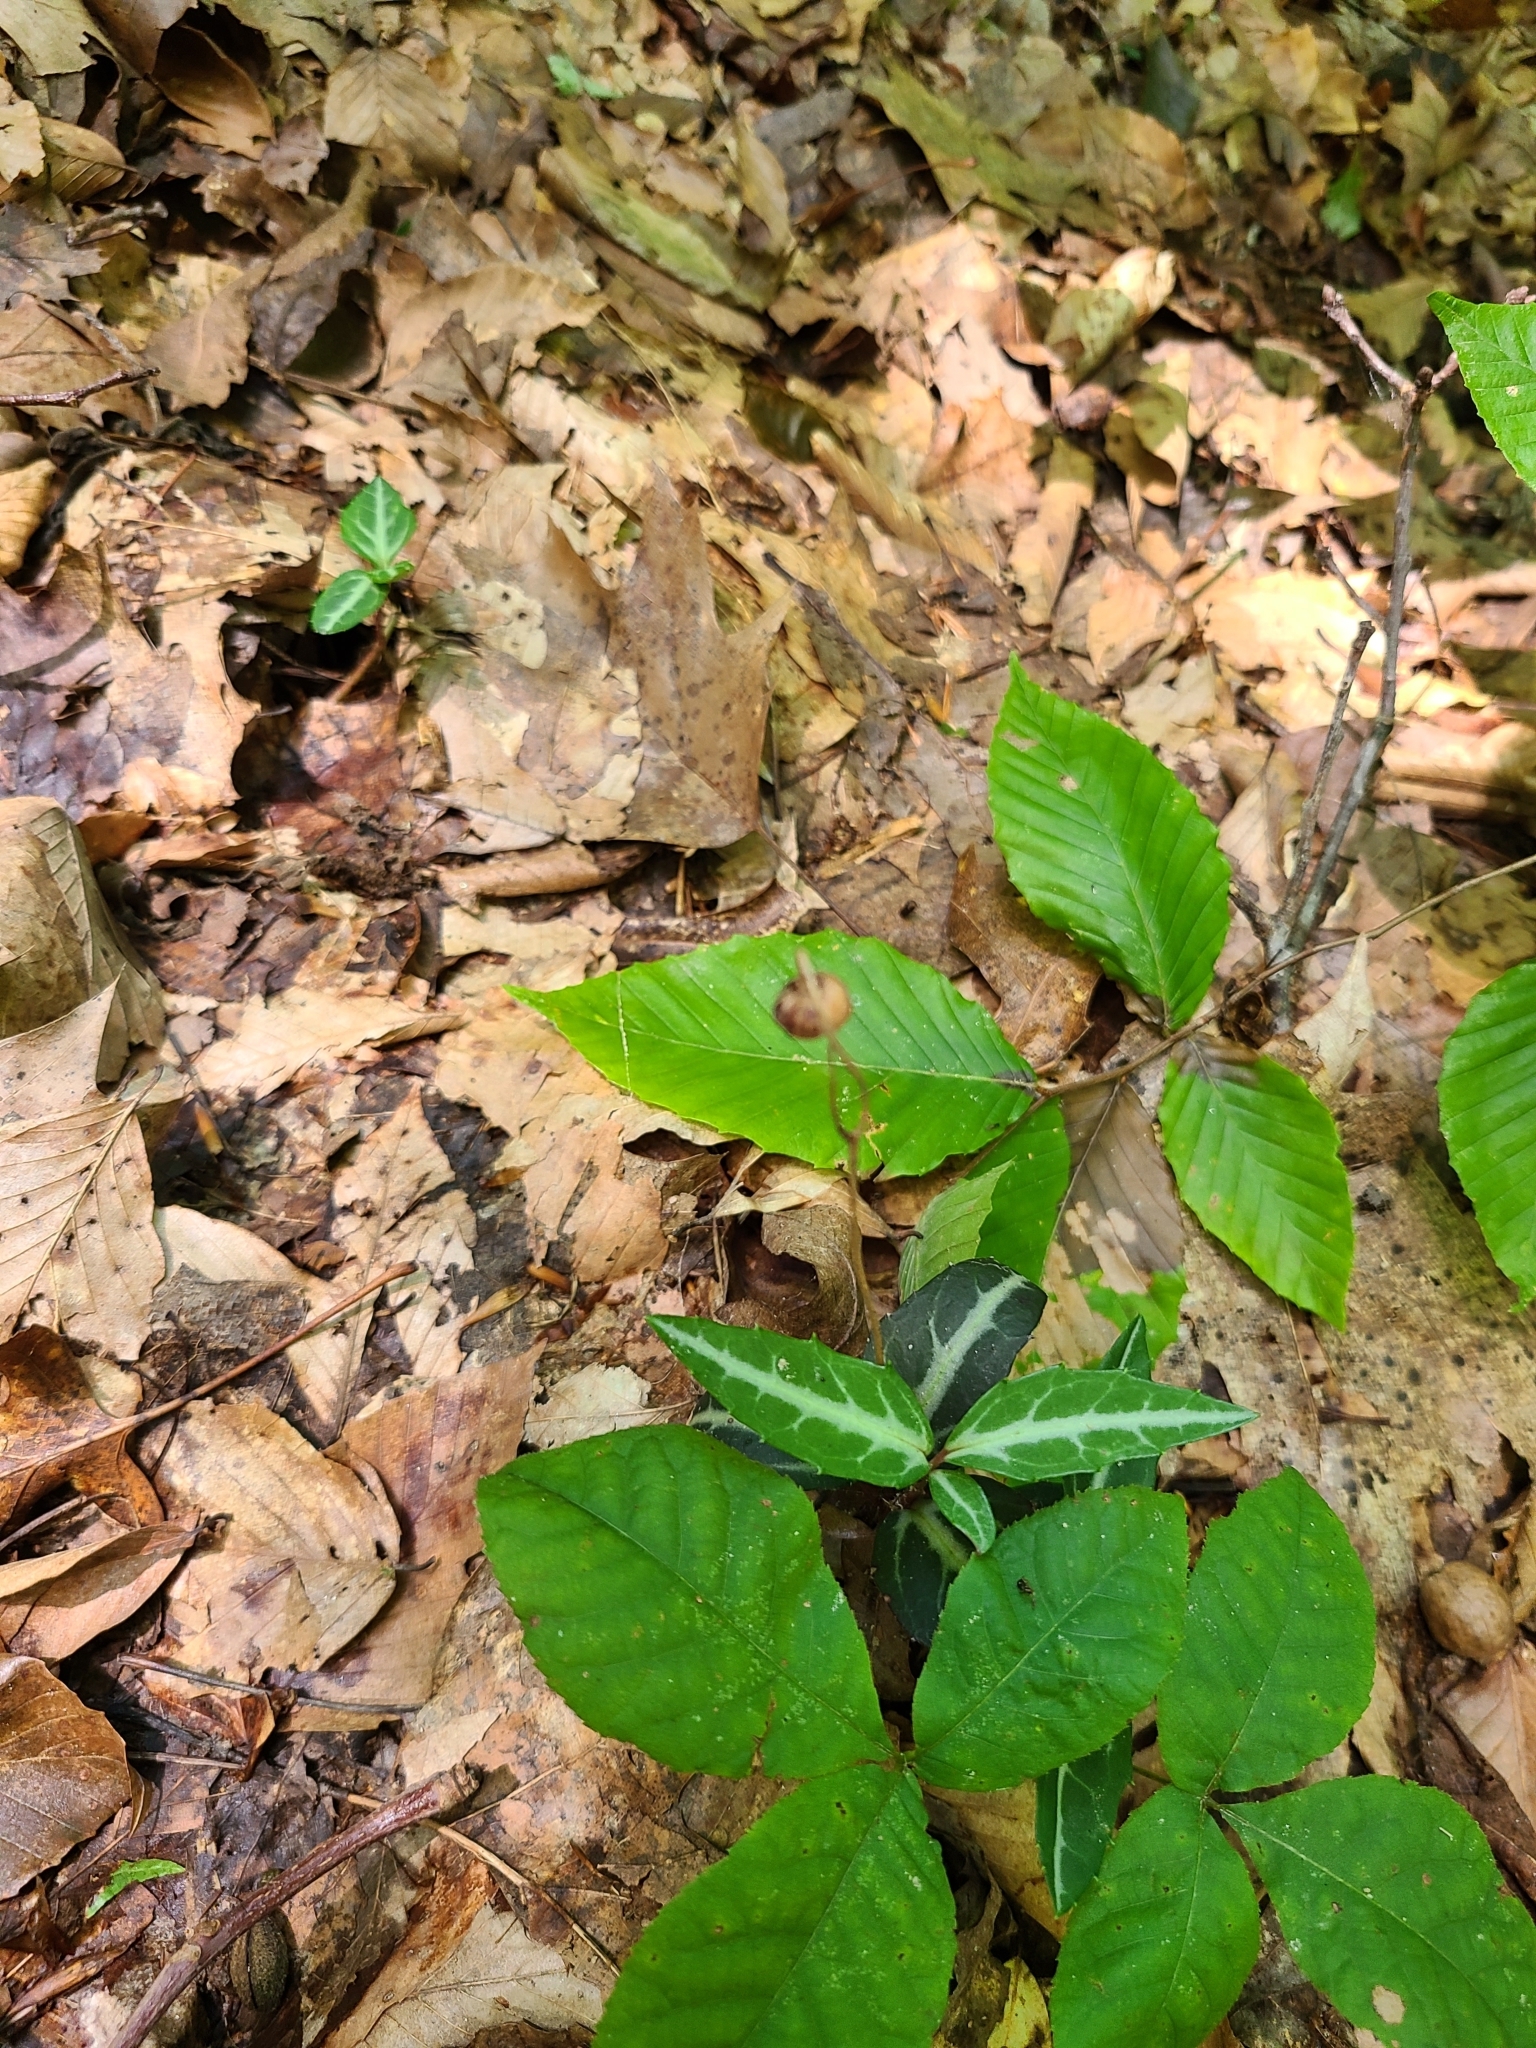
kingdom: Plantae
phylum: Tracheophyta
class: Magnoliopsida
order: Ericales
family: Ericaceae
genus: Chimaphila
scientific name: Chimaphila maculata
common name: Spotted pipsissewa
